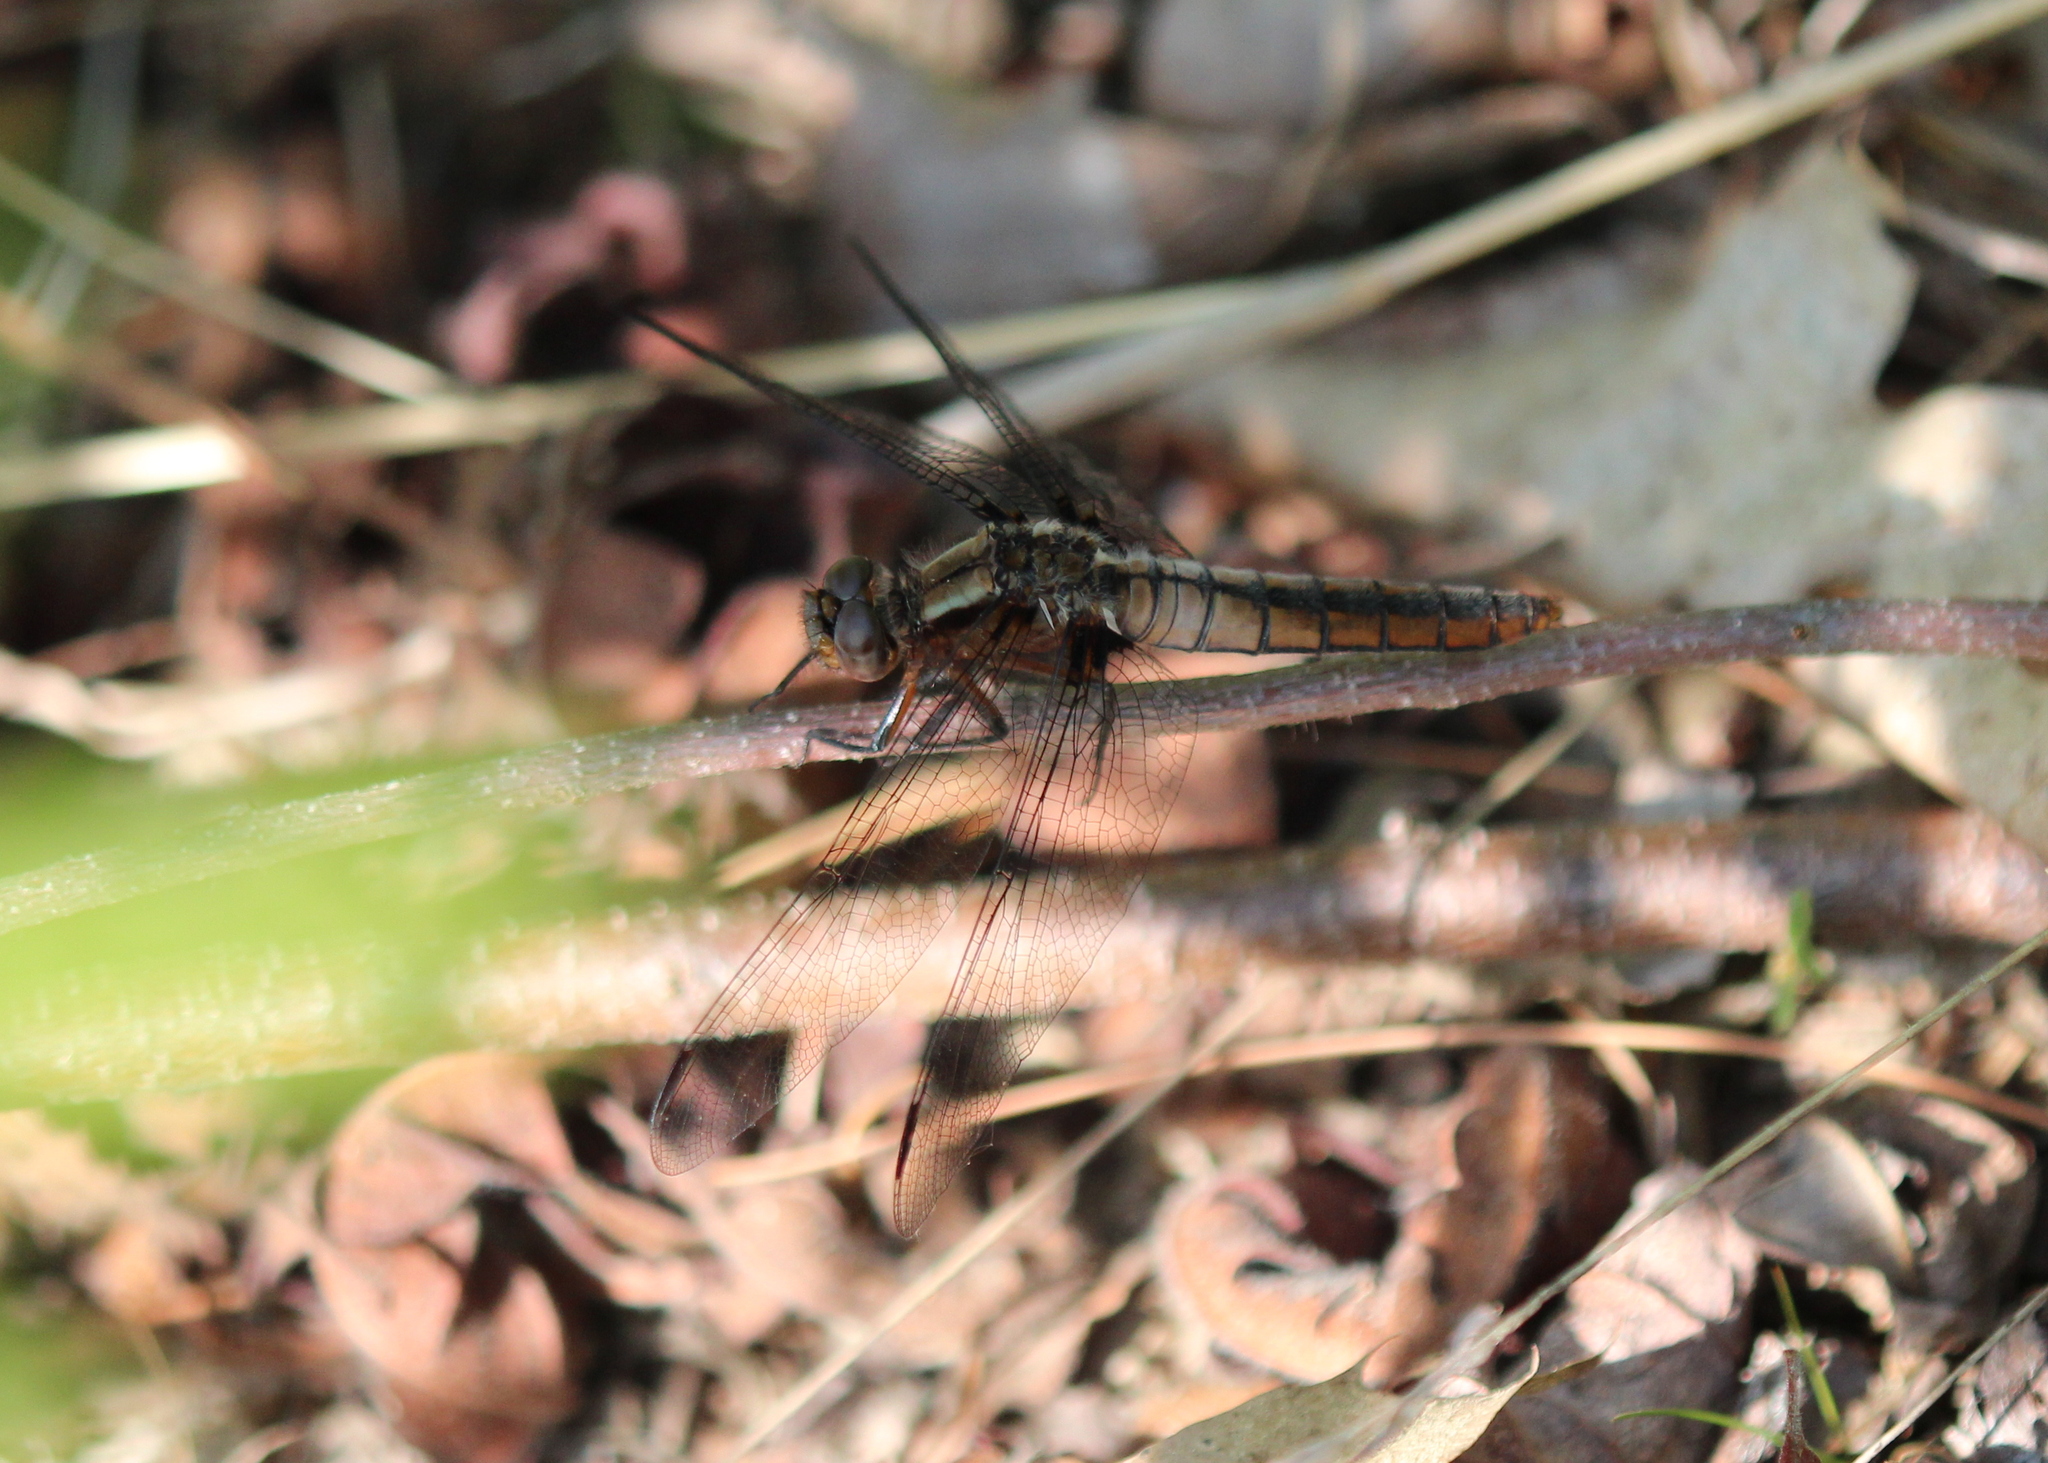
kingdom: Animalia
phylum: Arthropoda
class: Insecta
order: Odonata
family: Libellulidae
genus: Ladona
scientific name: Ladona julia
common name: Chalk-fronted corporal
